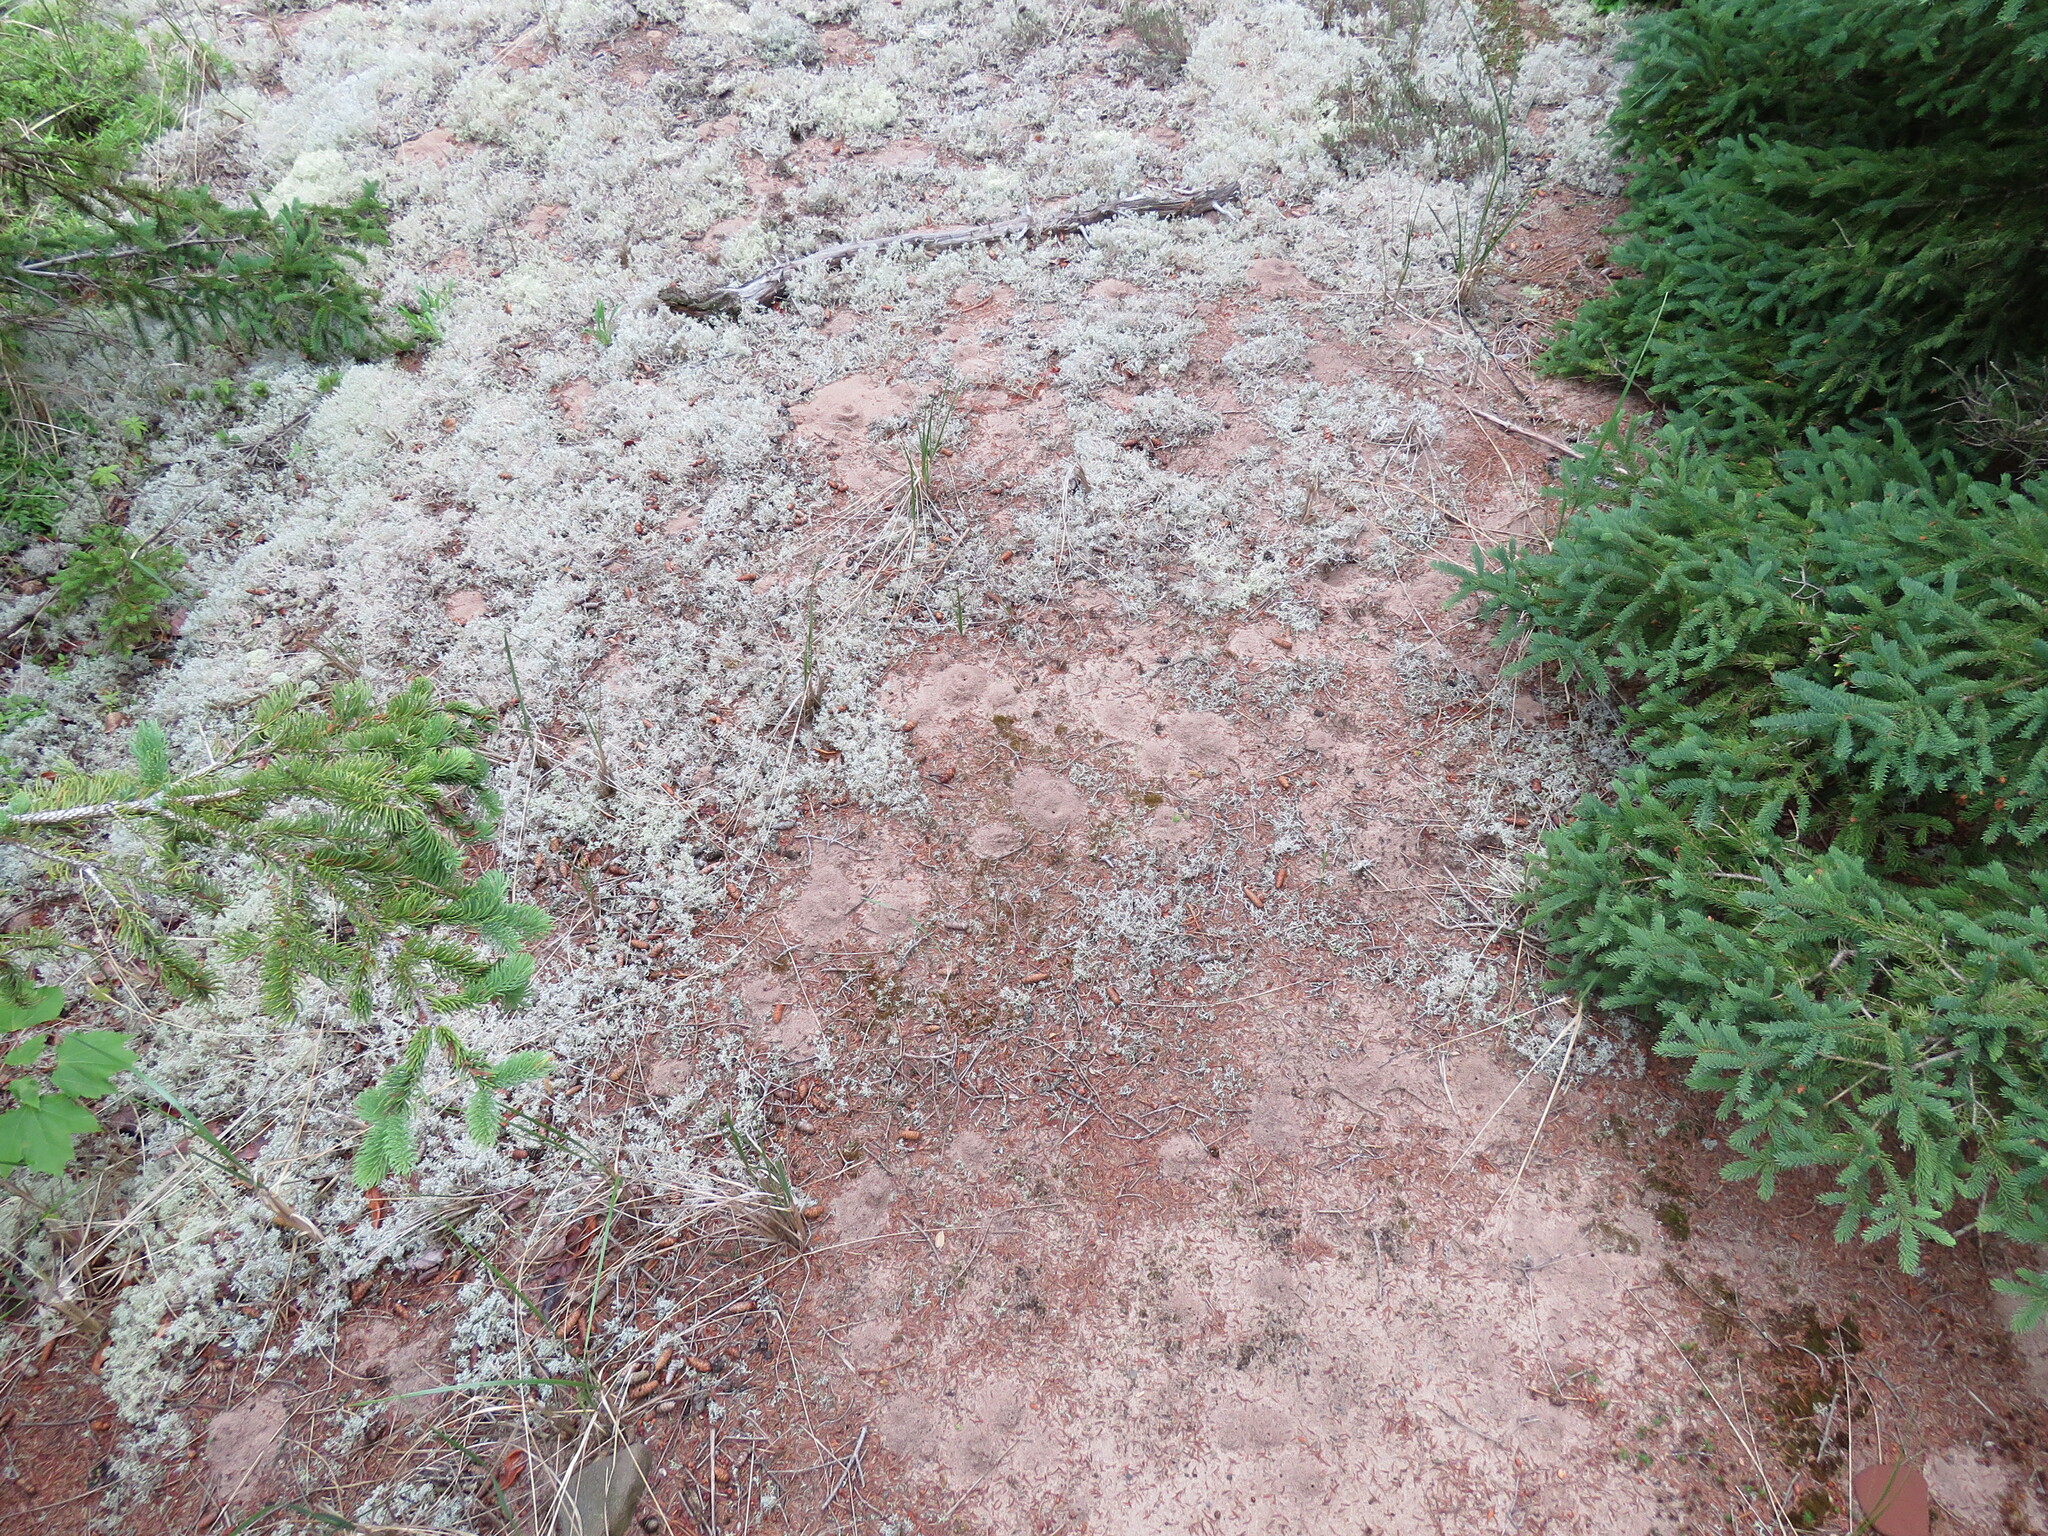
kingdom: Fungi
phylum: Ascomycota
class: Lecanoromycetes
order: Lecanorales
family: Cladoniaceae
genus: Cladonia
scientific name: Cladonia rangiferina
